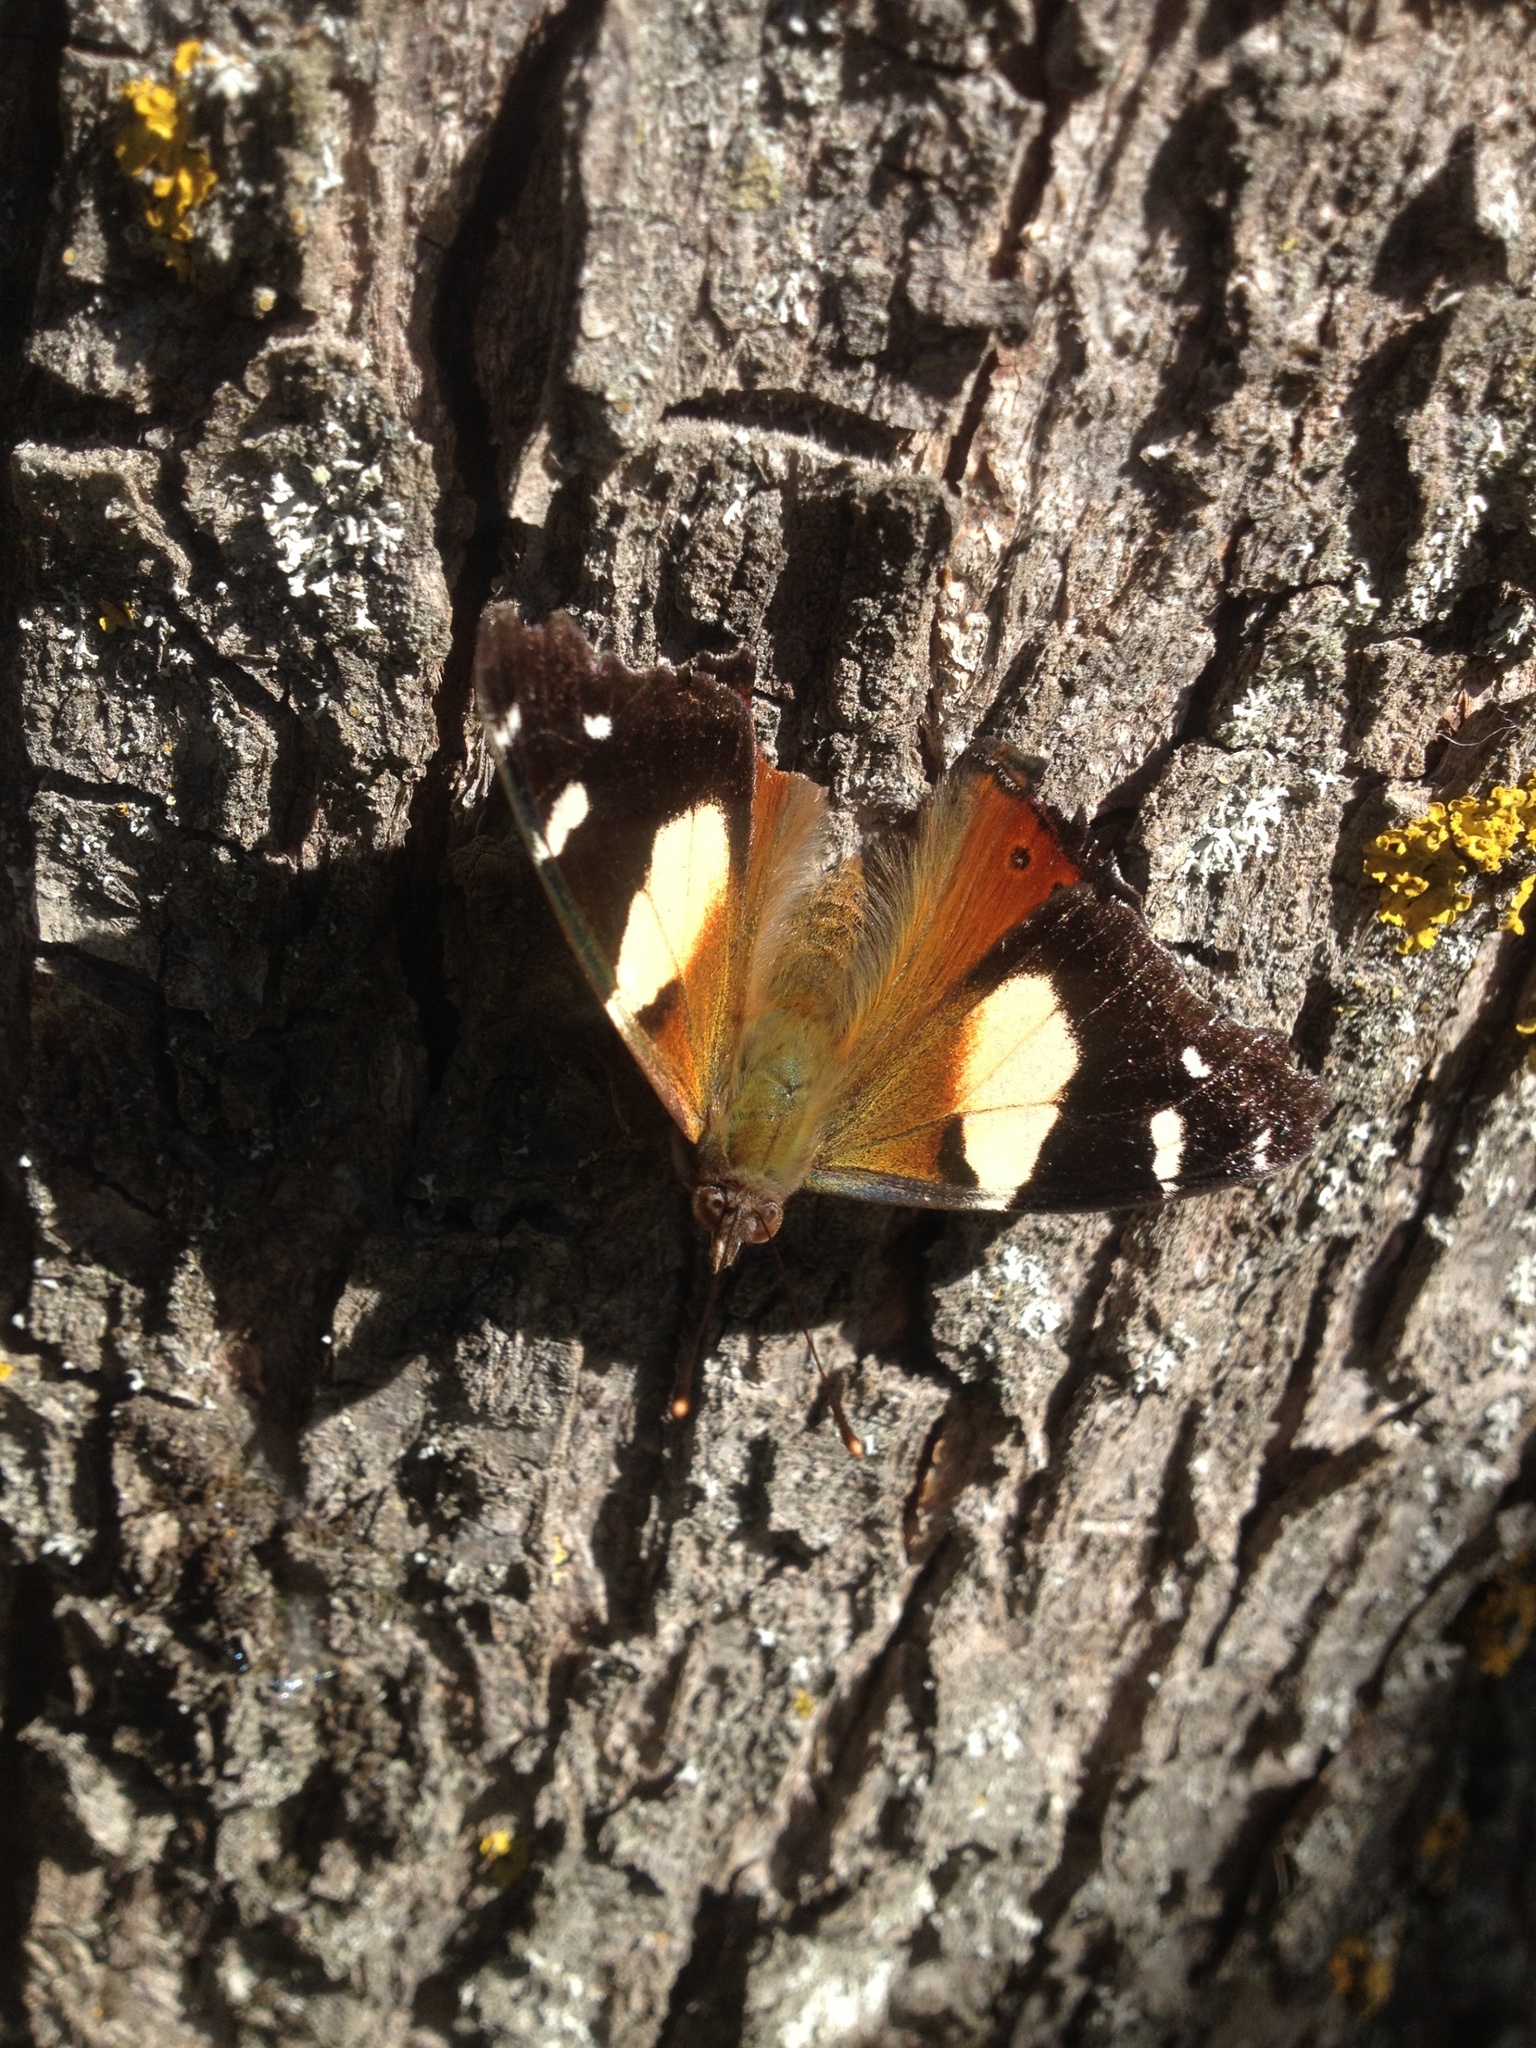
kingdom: Animalia
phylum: Arthropoda
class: Insecta
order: Lepidoptera
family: Nymphalidae
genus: Vanessa
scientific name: Vanessa itea
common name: Yellow admiral
